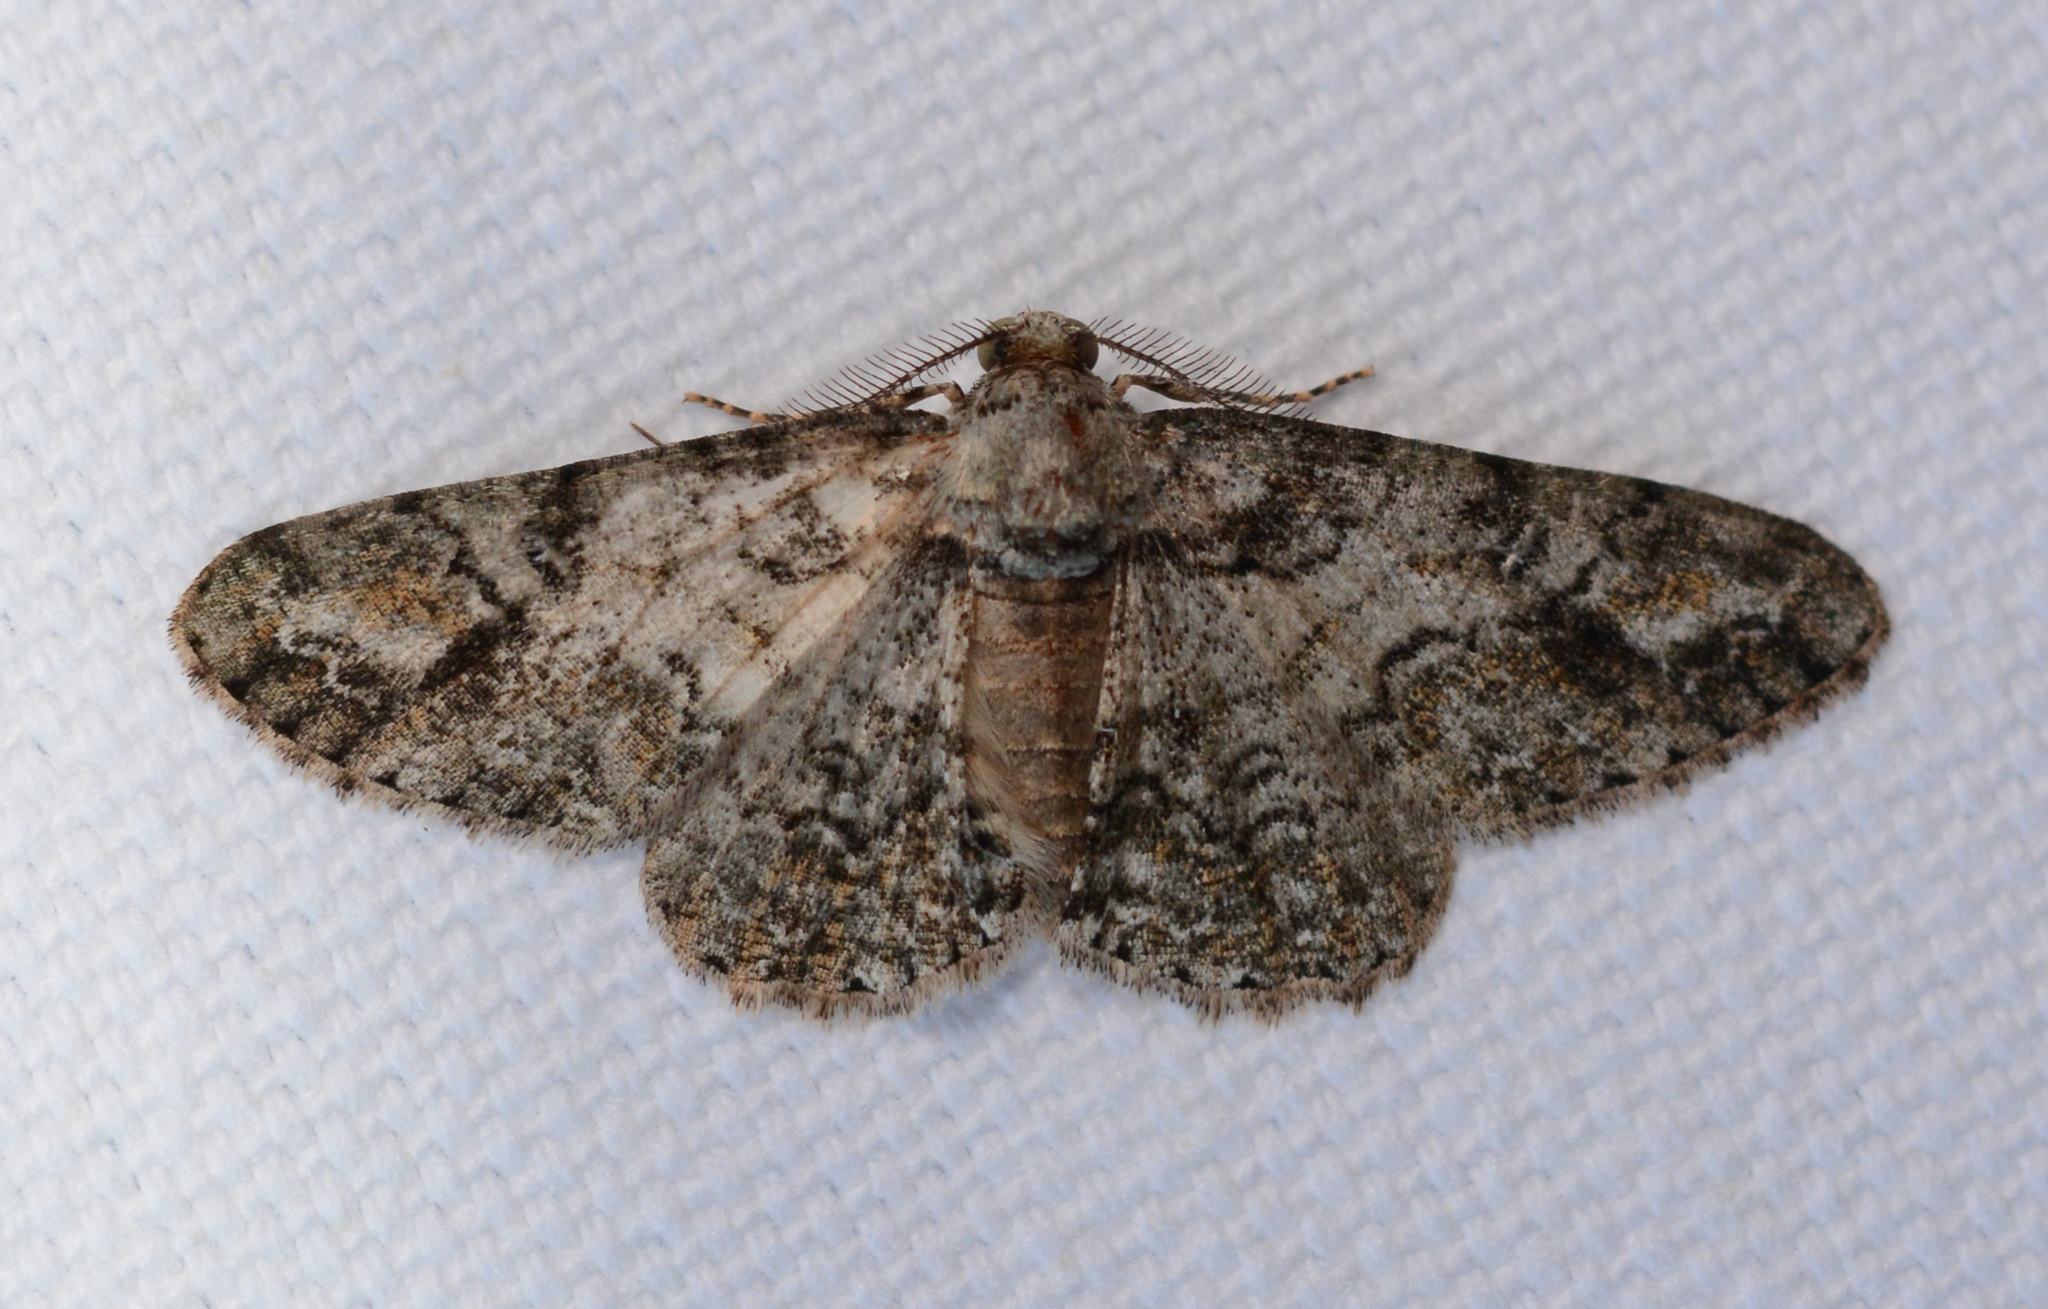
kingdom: Animalia
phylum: Arthropoda
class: Insecta
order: Lepidoptera
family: Geometridae
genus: Cleora
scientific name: Cleora sublunaria
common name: Double-lined gray
